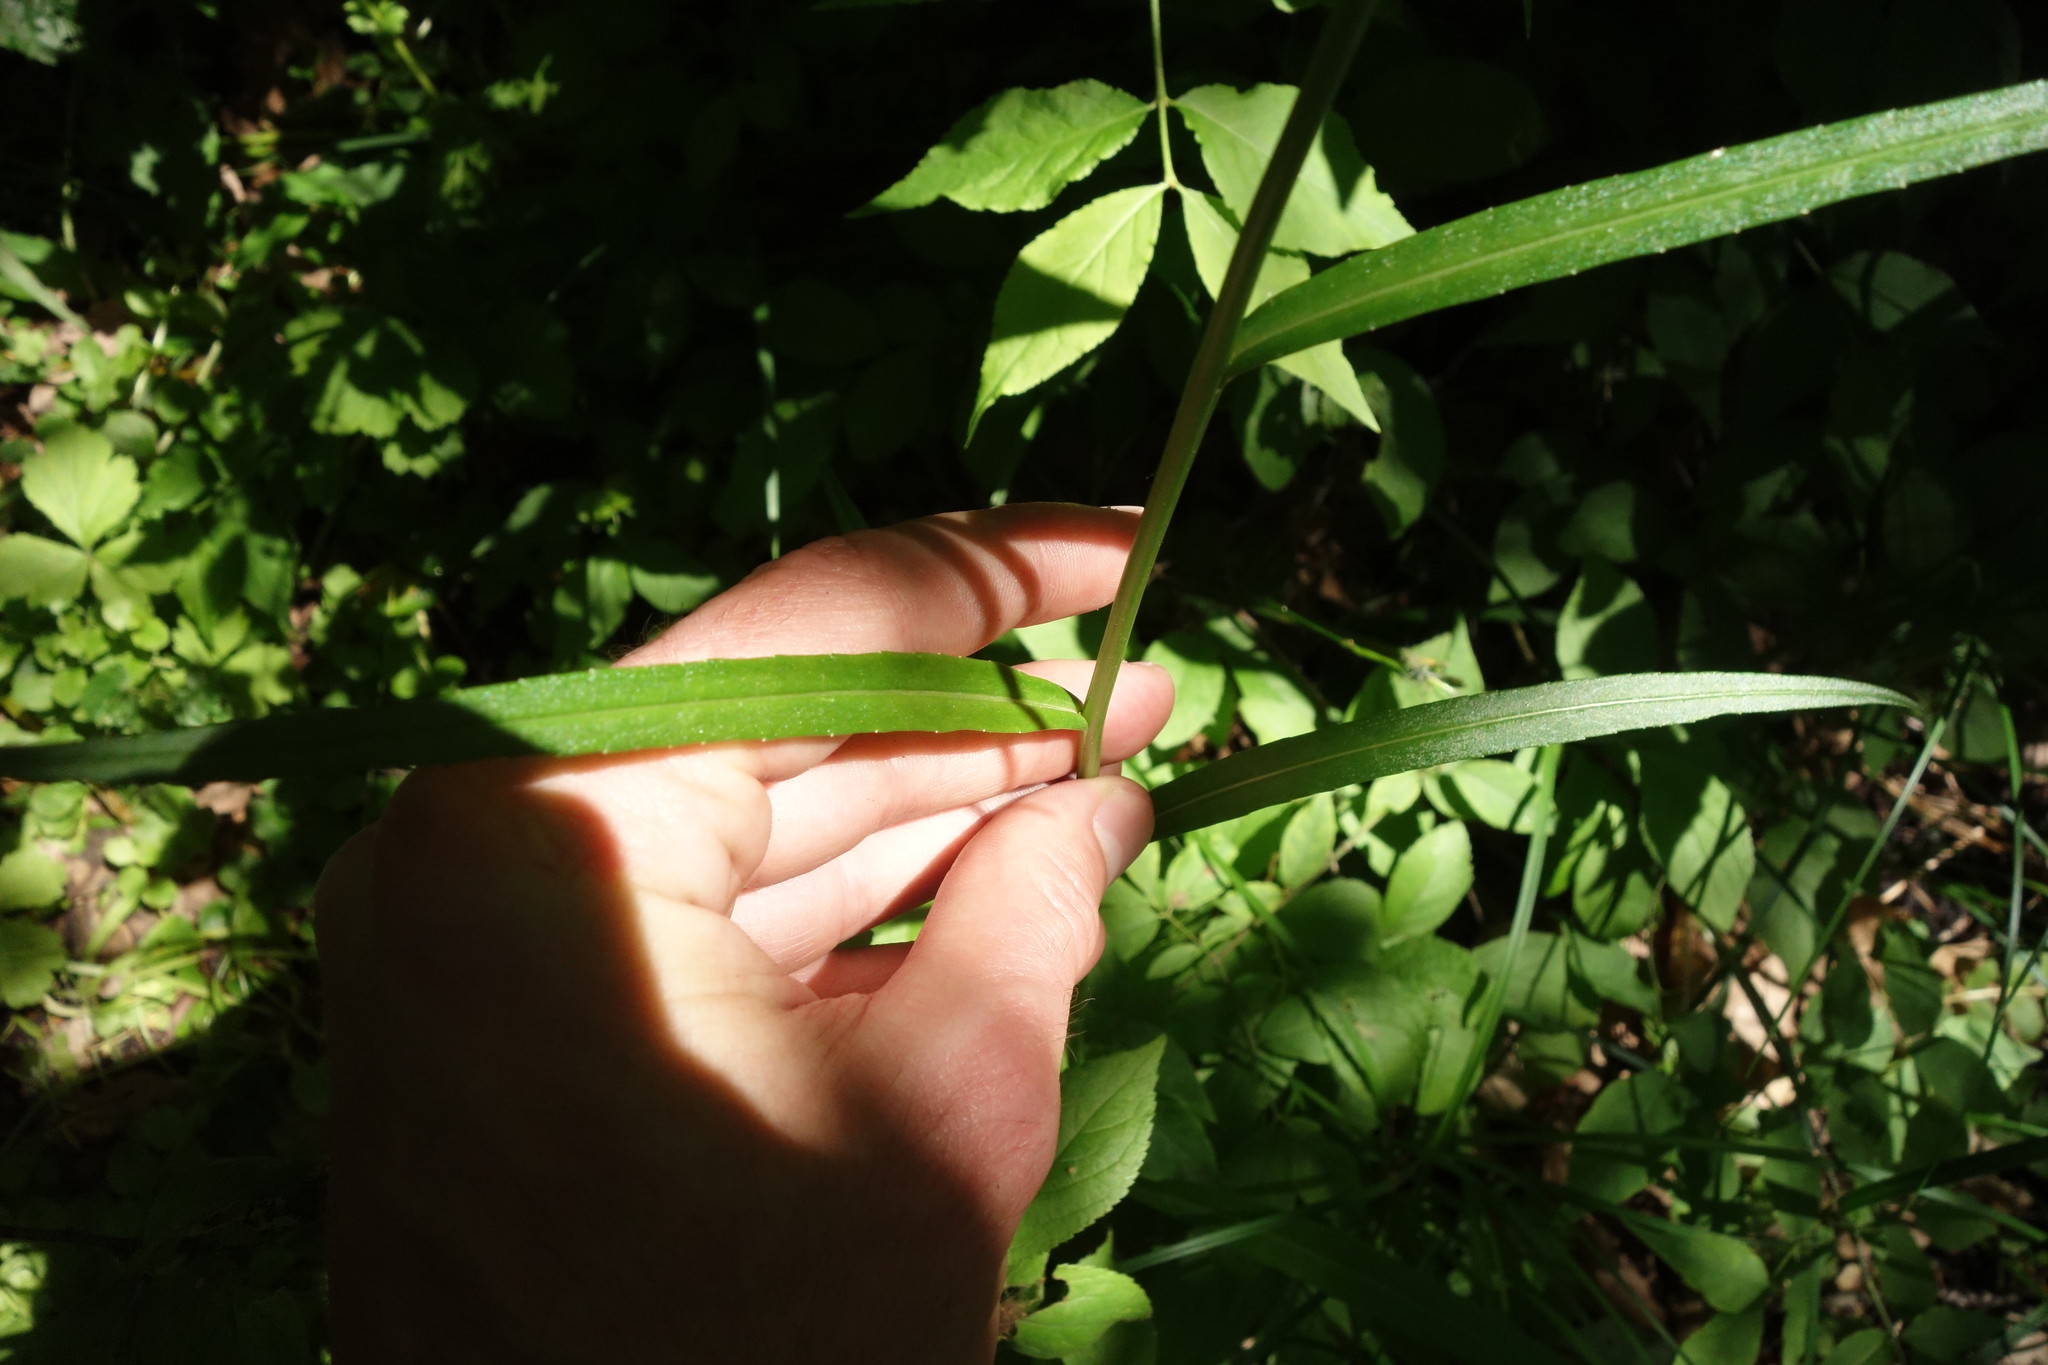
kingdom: Plantae
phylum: Tracheophyta
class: Magnoliopsida
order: Asterales
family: Campanulaceae
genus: Campanula
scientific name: Campanula persicifolia
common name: Peach-leaved bellflower
